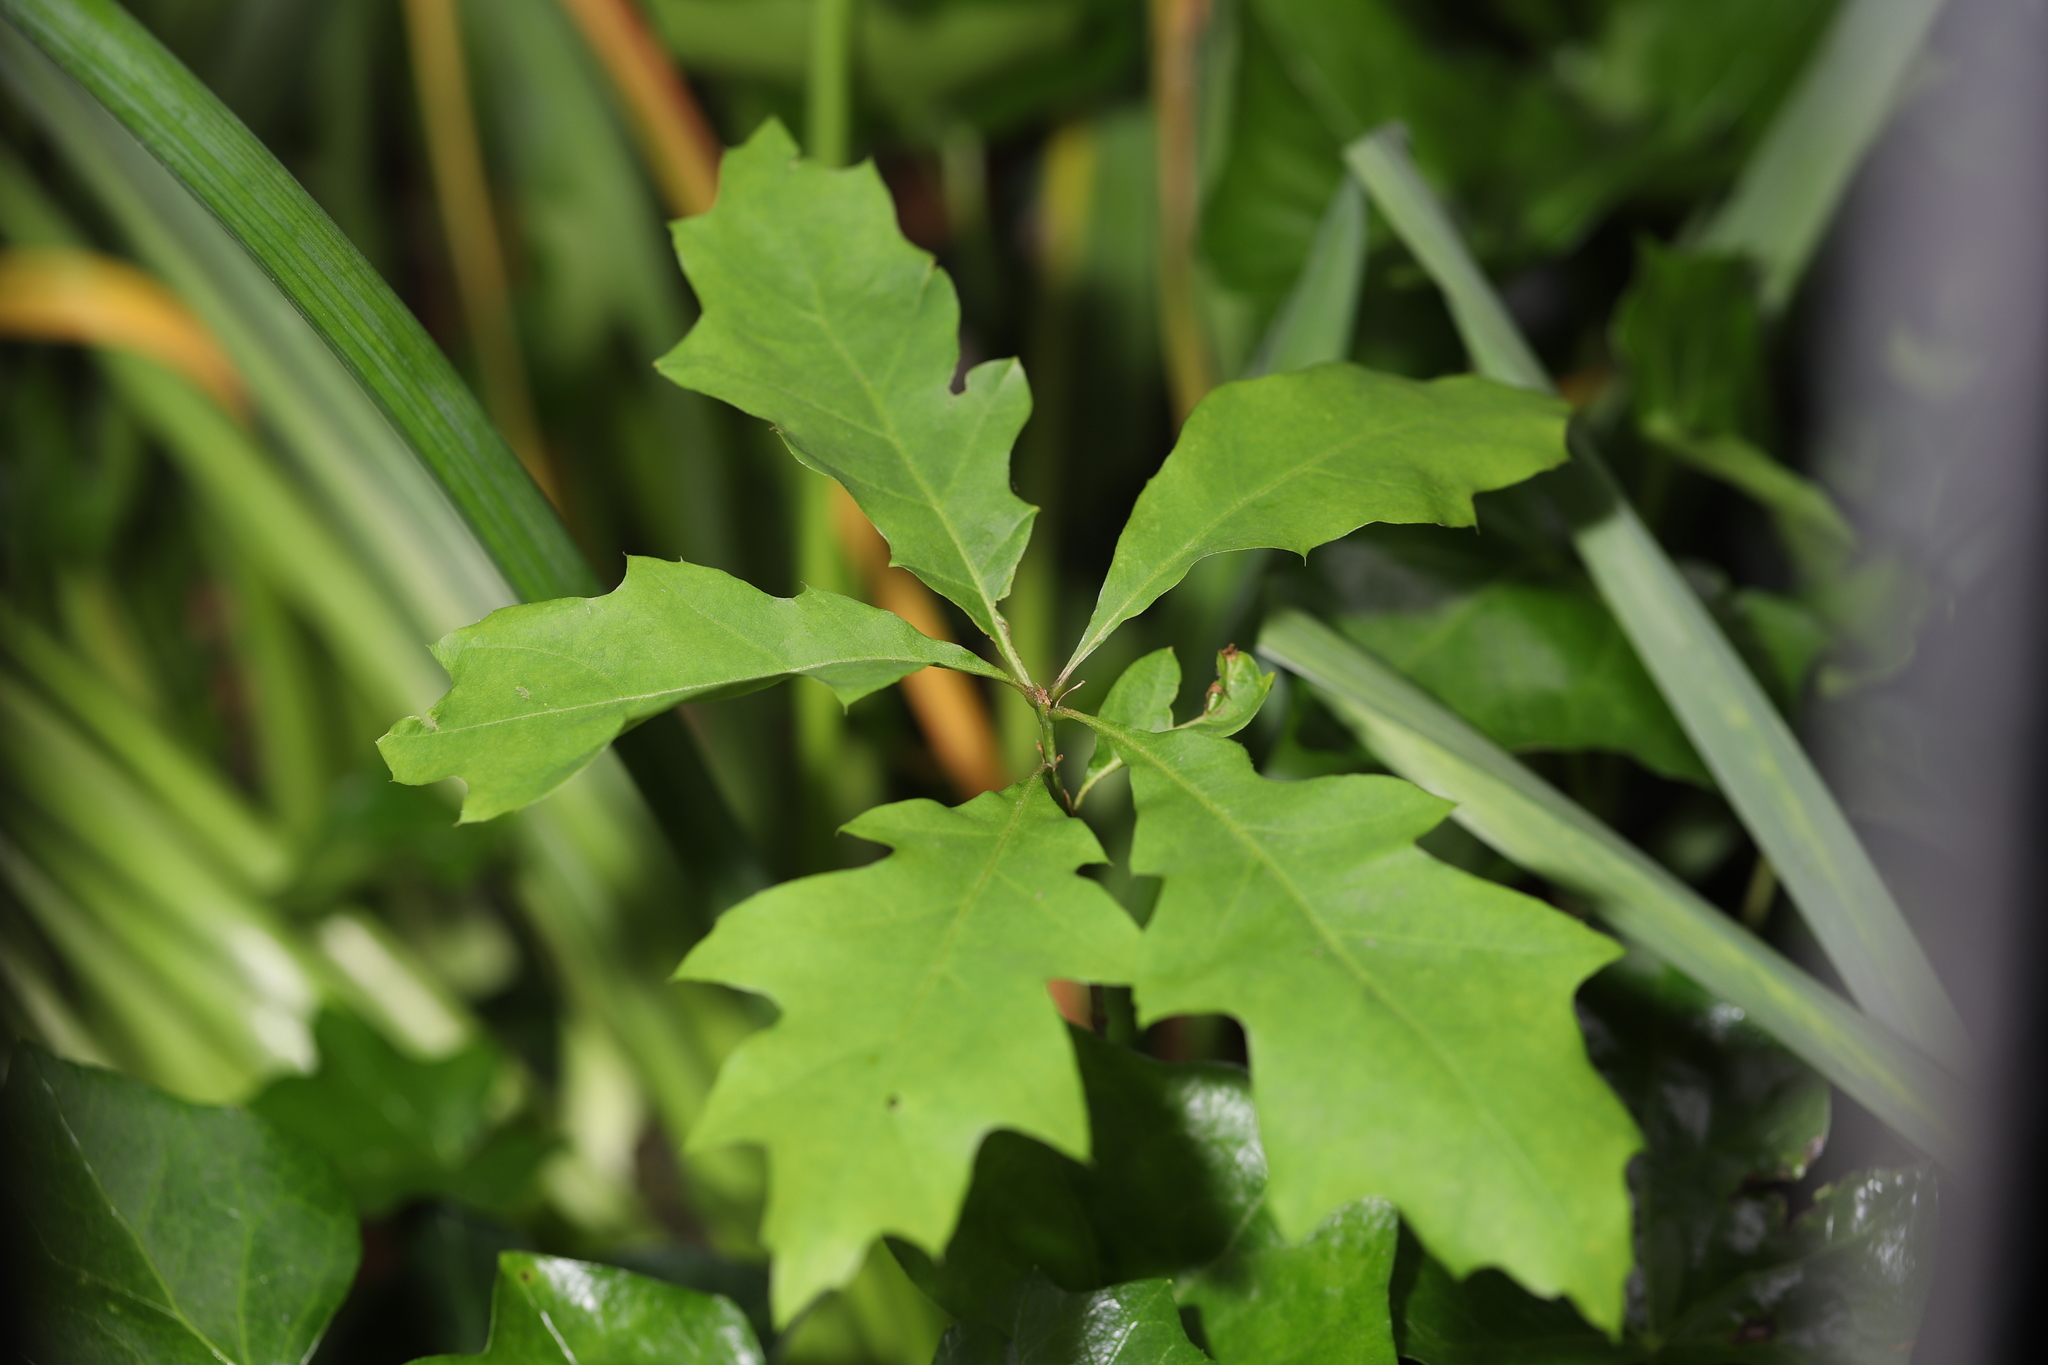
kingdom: Plantae
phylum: Tracheophyta
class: Magnoliopsida
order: Fagales
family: Fagaceae
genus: Quercus
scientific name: Quercus rubra
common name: Red oak
